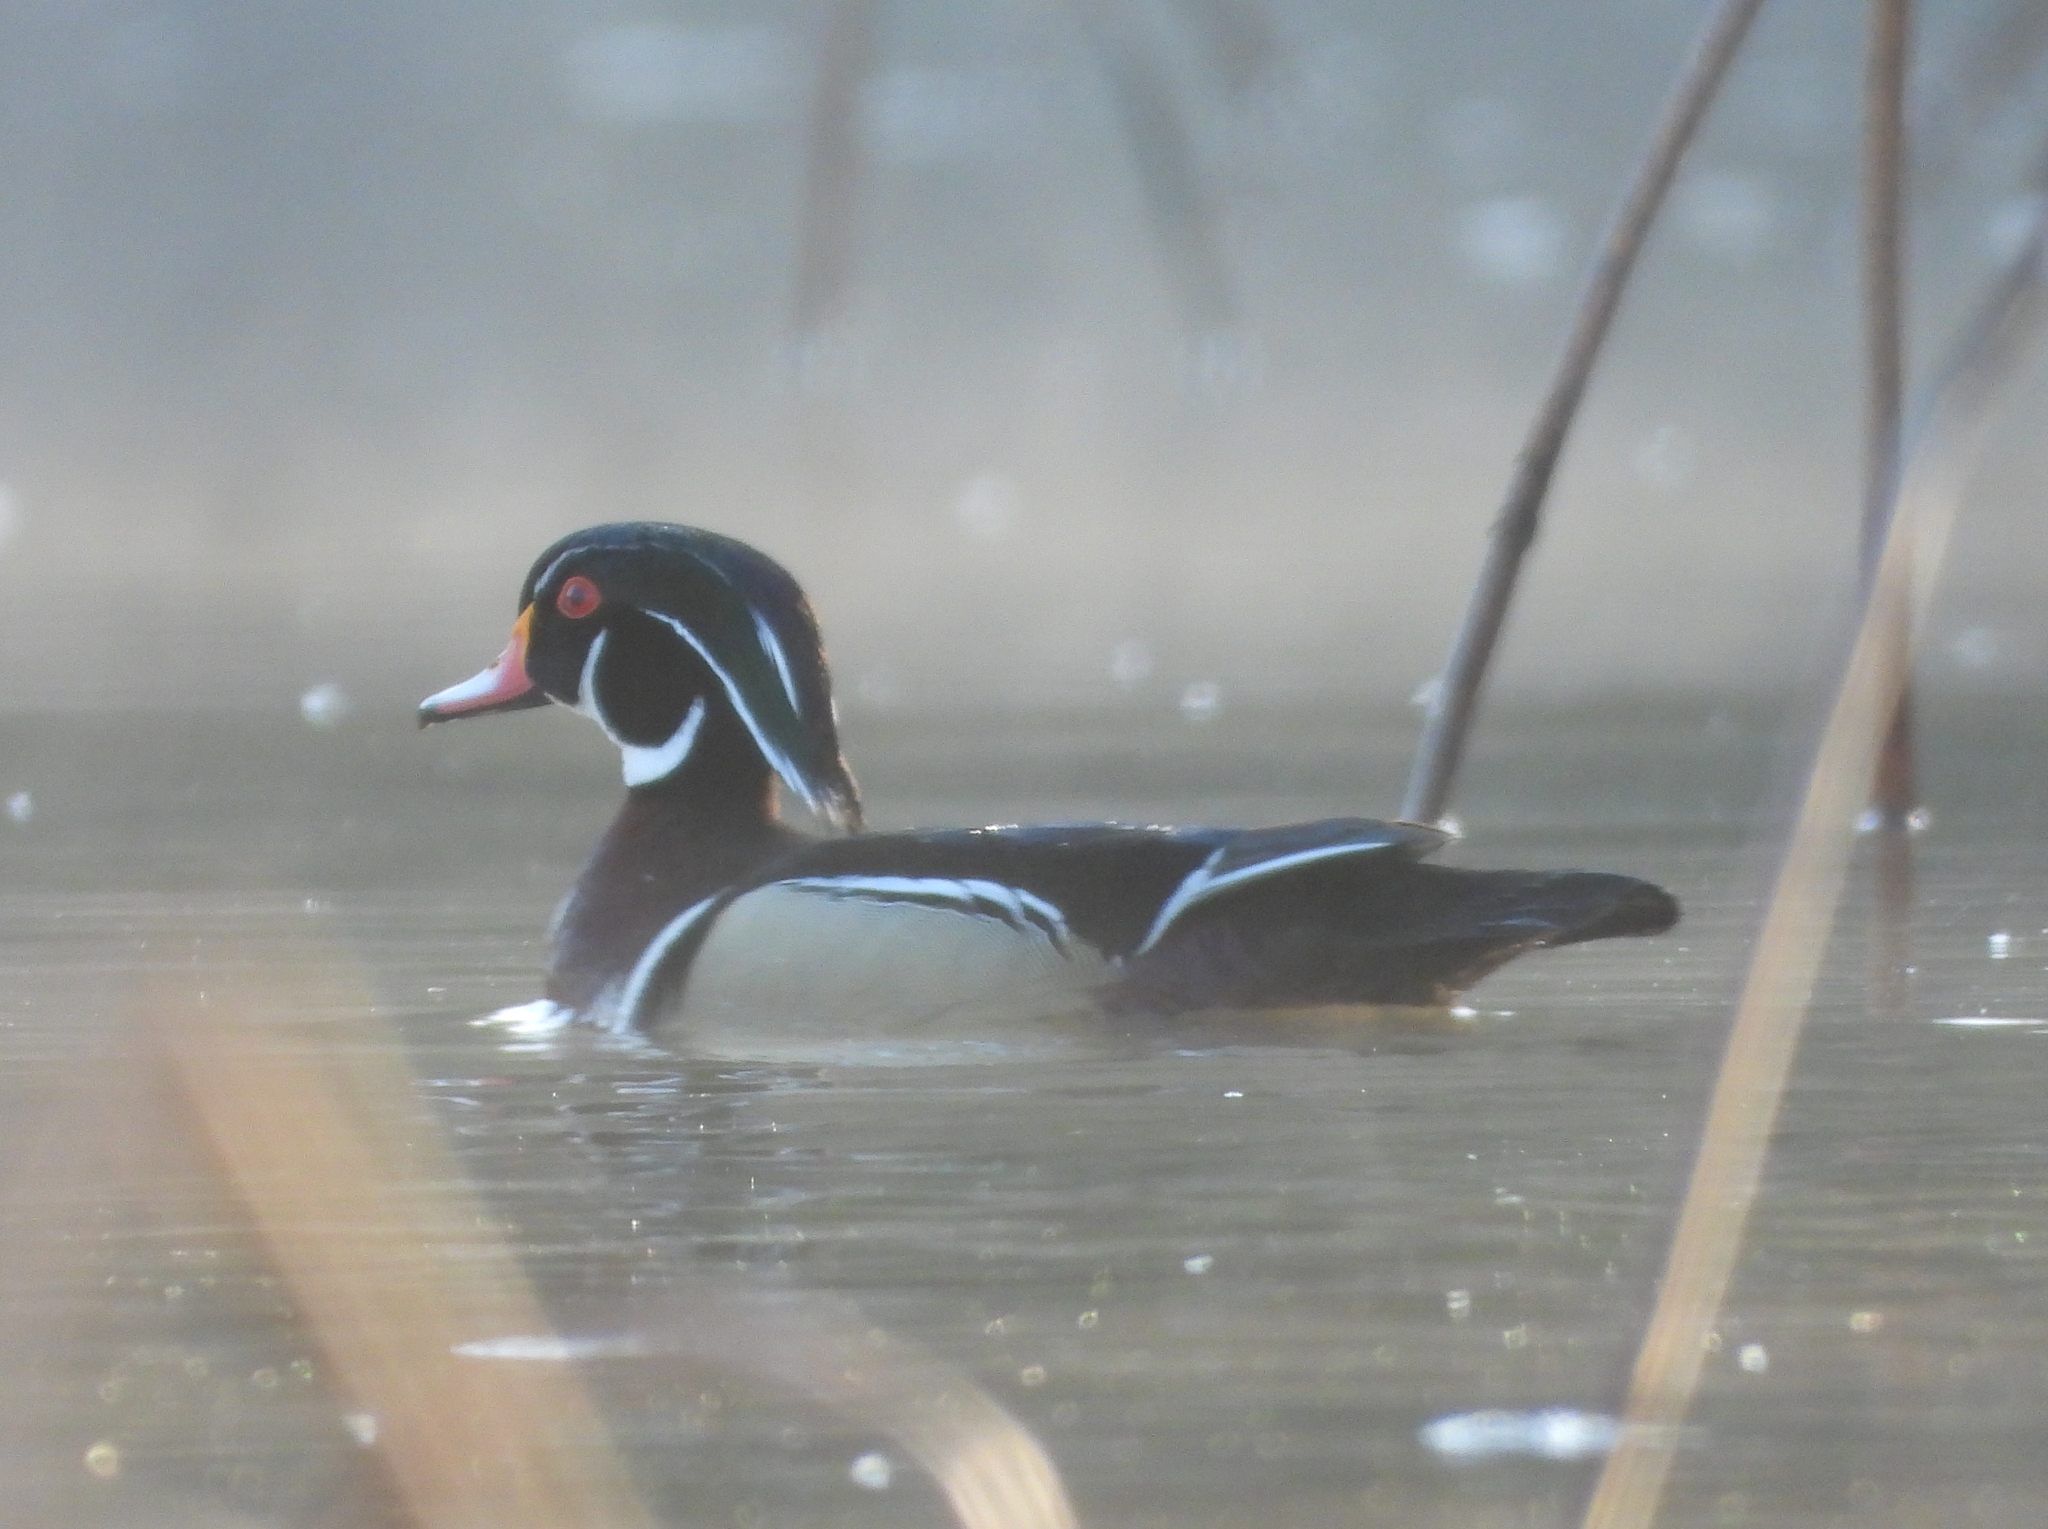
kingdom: Animalia
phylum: Chordata
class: Aves
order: Anseriformes
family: Anatidae
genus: Aix
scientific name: Aix sponsa
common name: Wood duck
